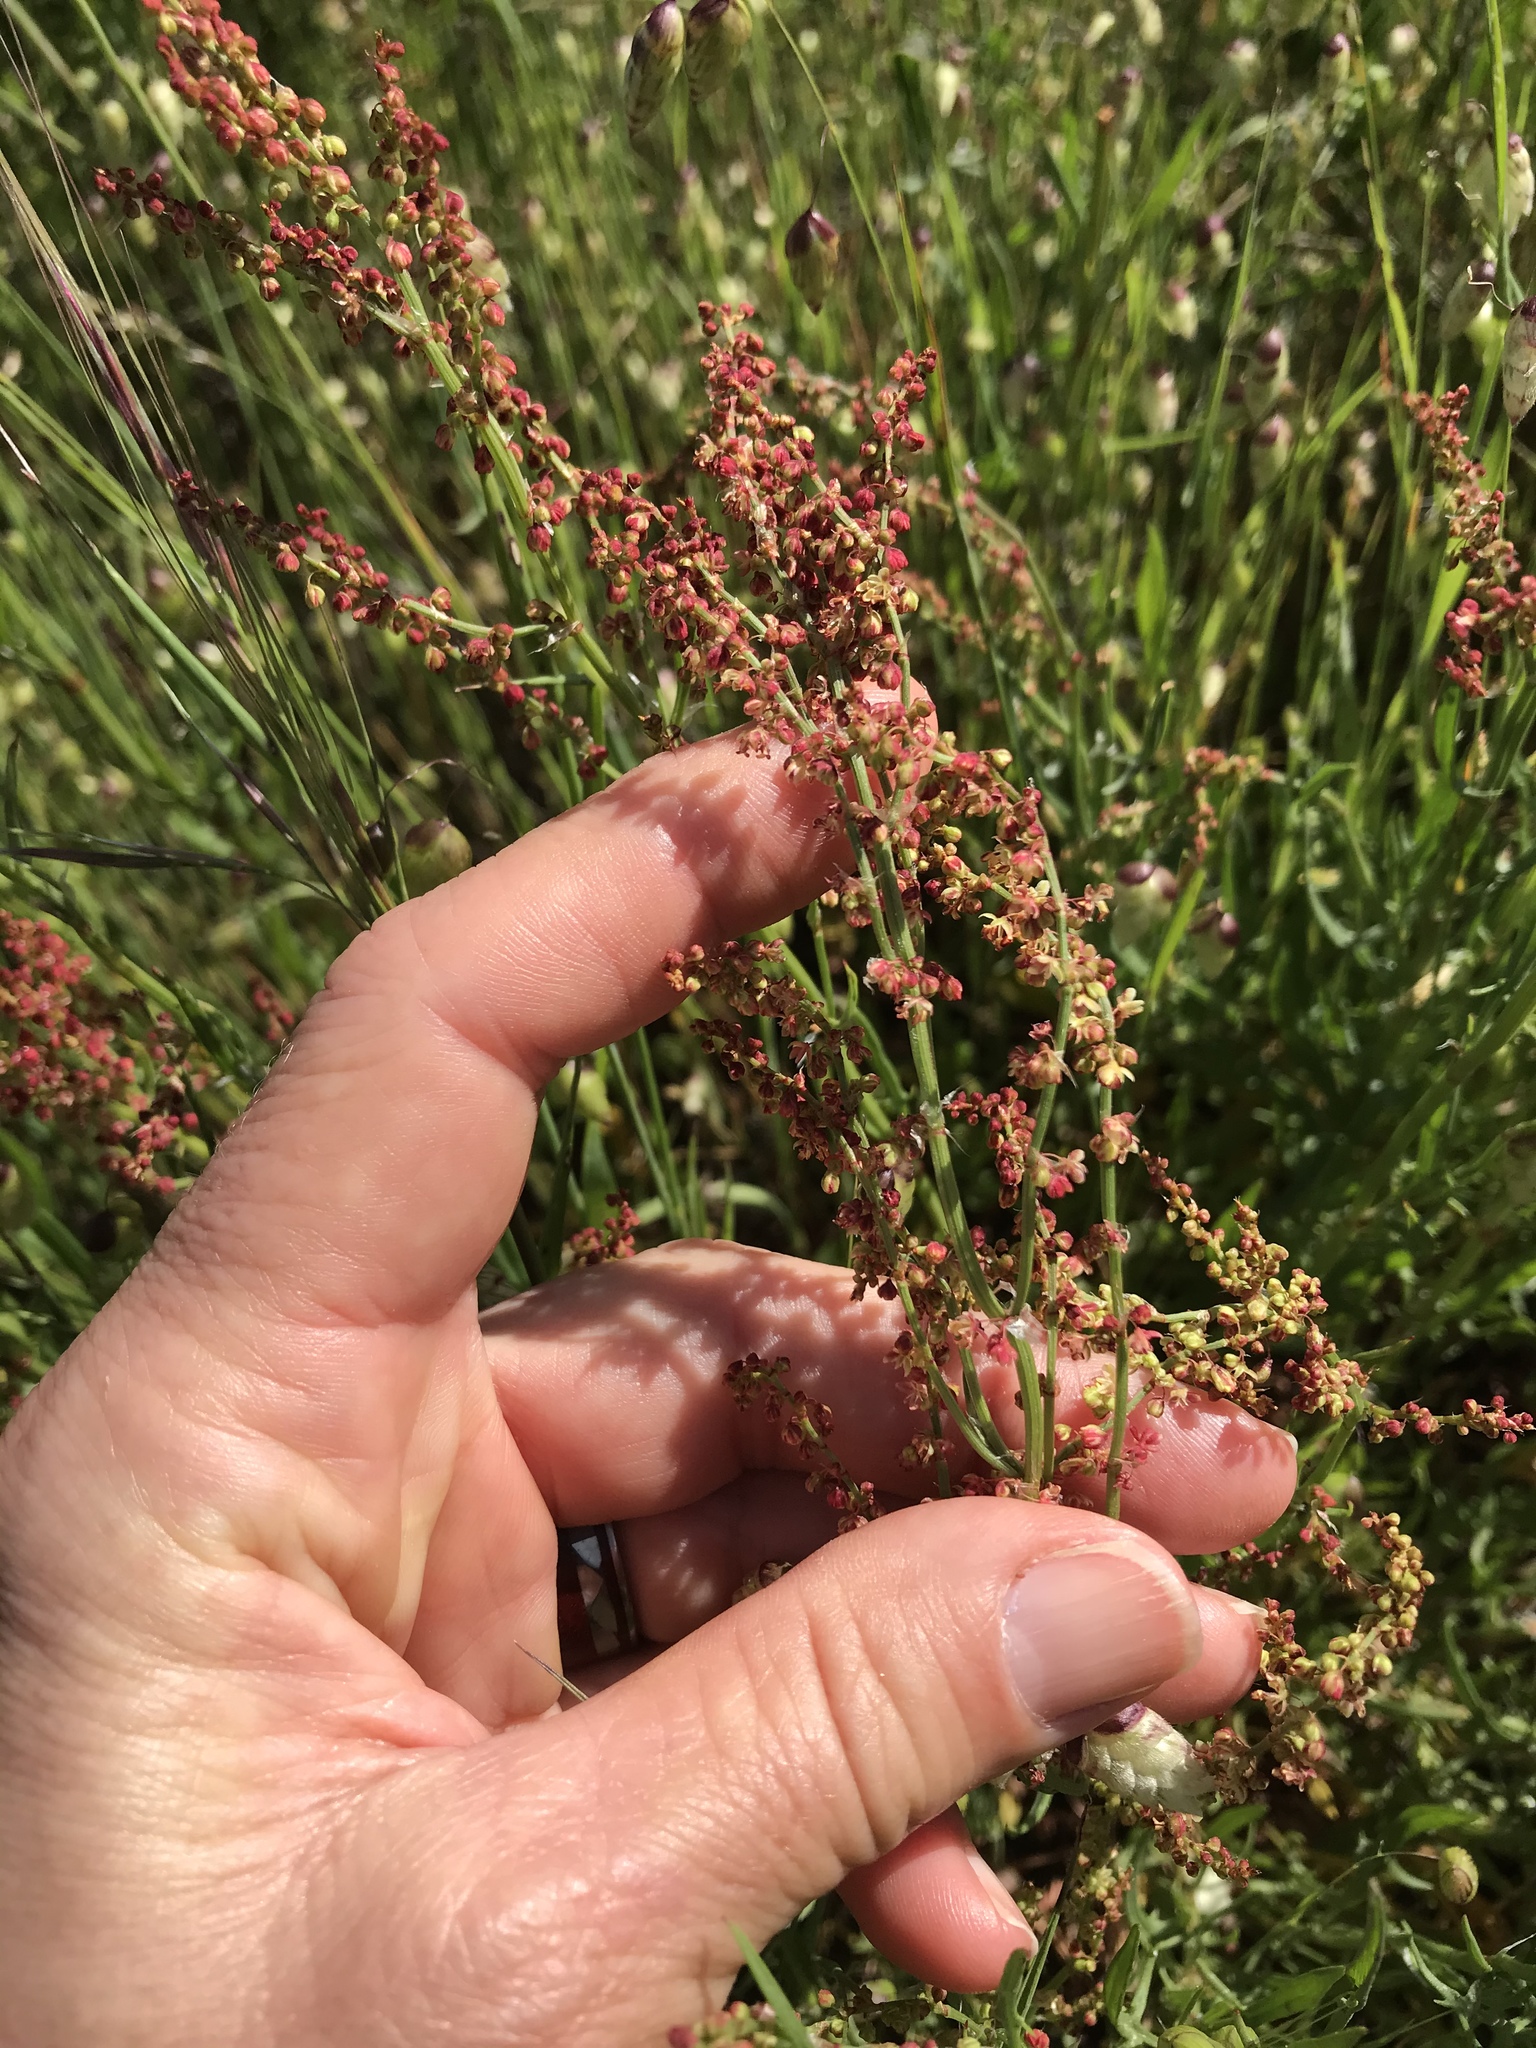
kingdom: Plantae
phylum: Tracheophyta
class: Magnoliopsida
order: Caryophyllales
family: Polygonaceae
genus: Rumex
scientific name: Rumex acetosella
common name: Common sheep sorrel
